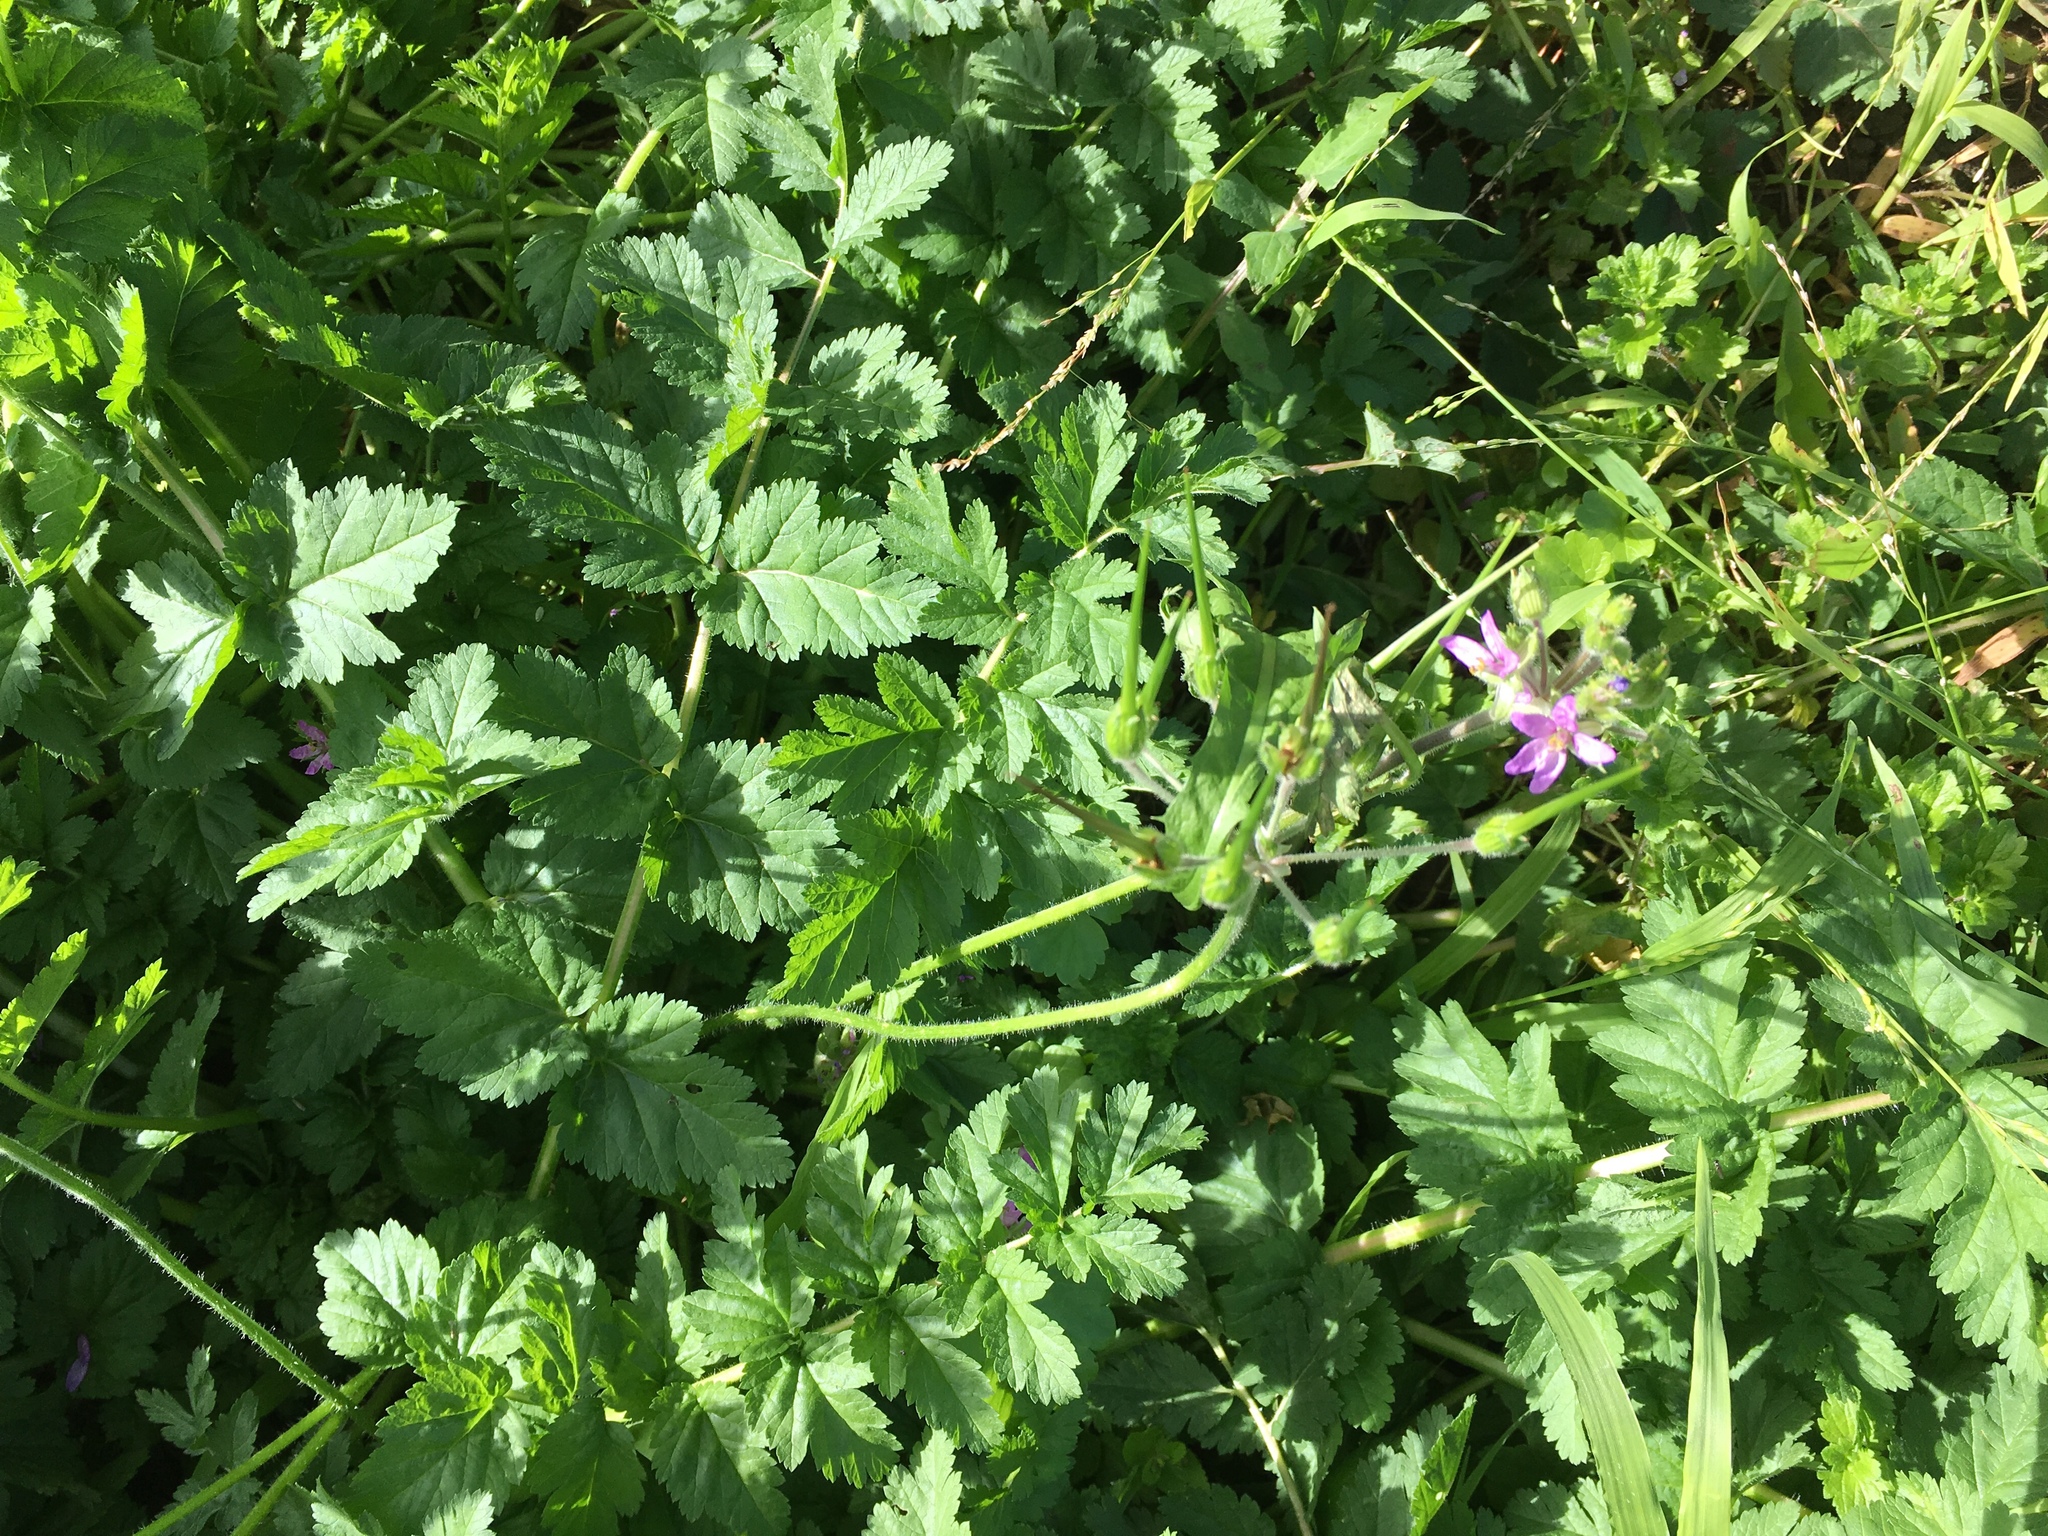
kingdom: Plantae
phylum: Tracheophyta
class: Magnoliopsida
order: Geraniales
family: Geraniaceae
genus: Erodium
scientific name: Erodium moschatum
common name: Musk stork's-bill
